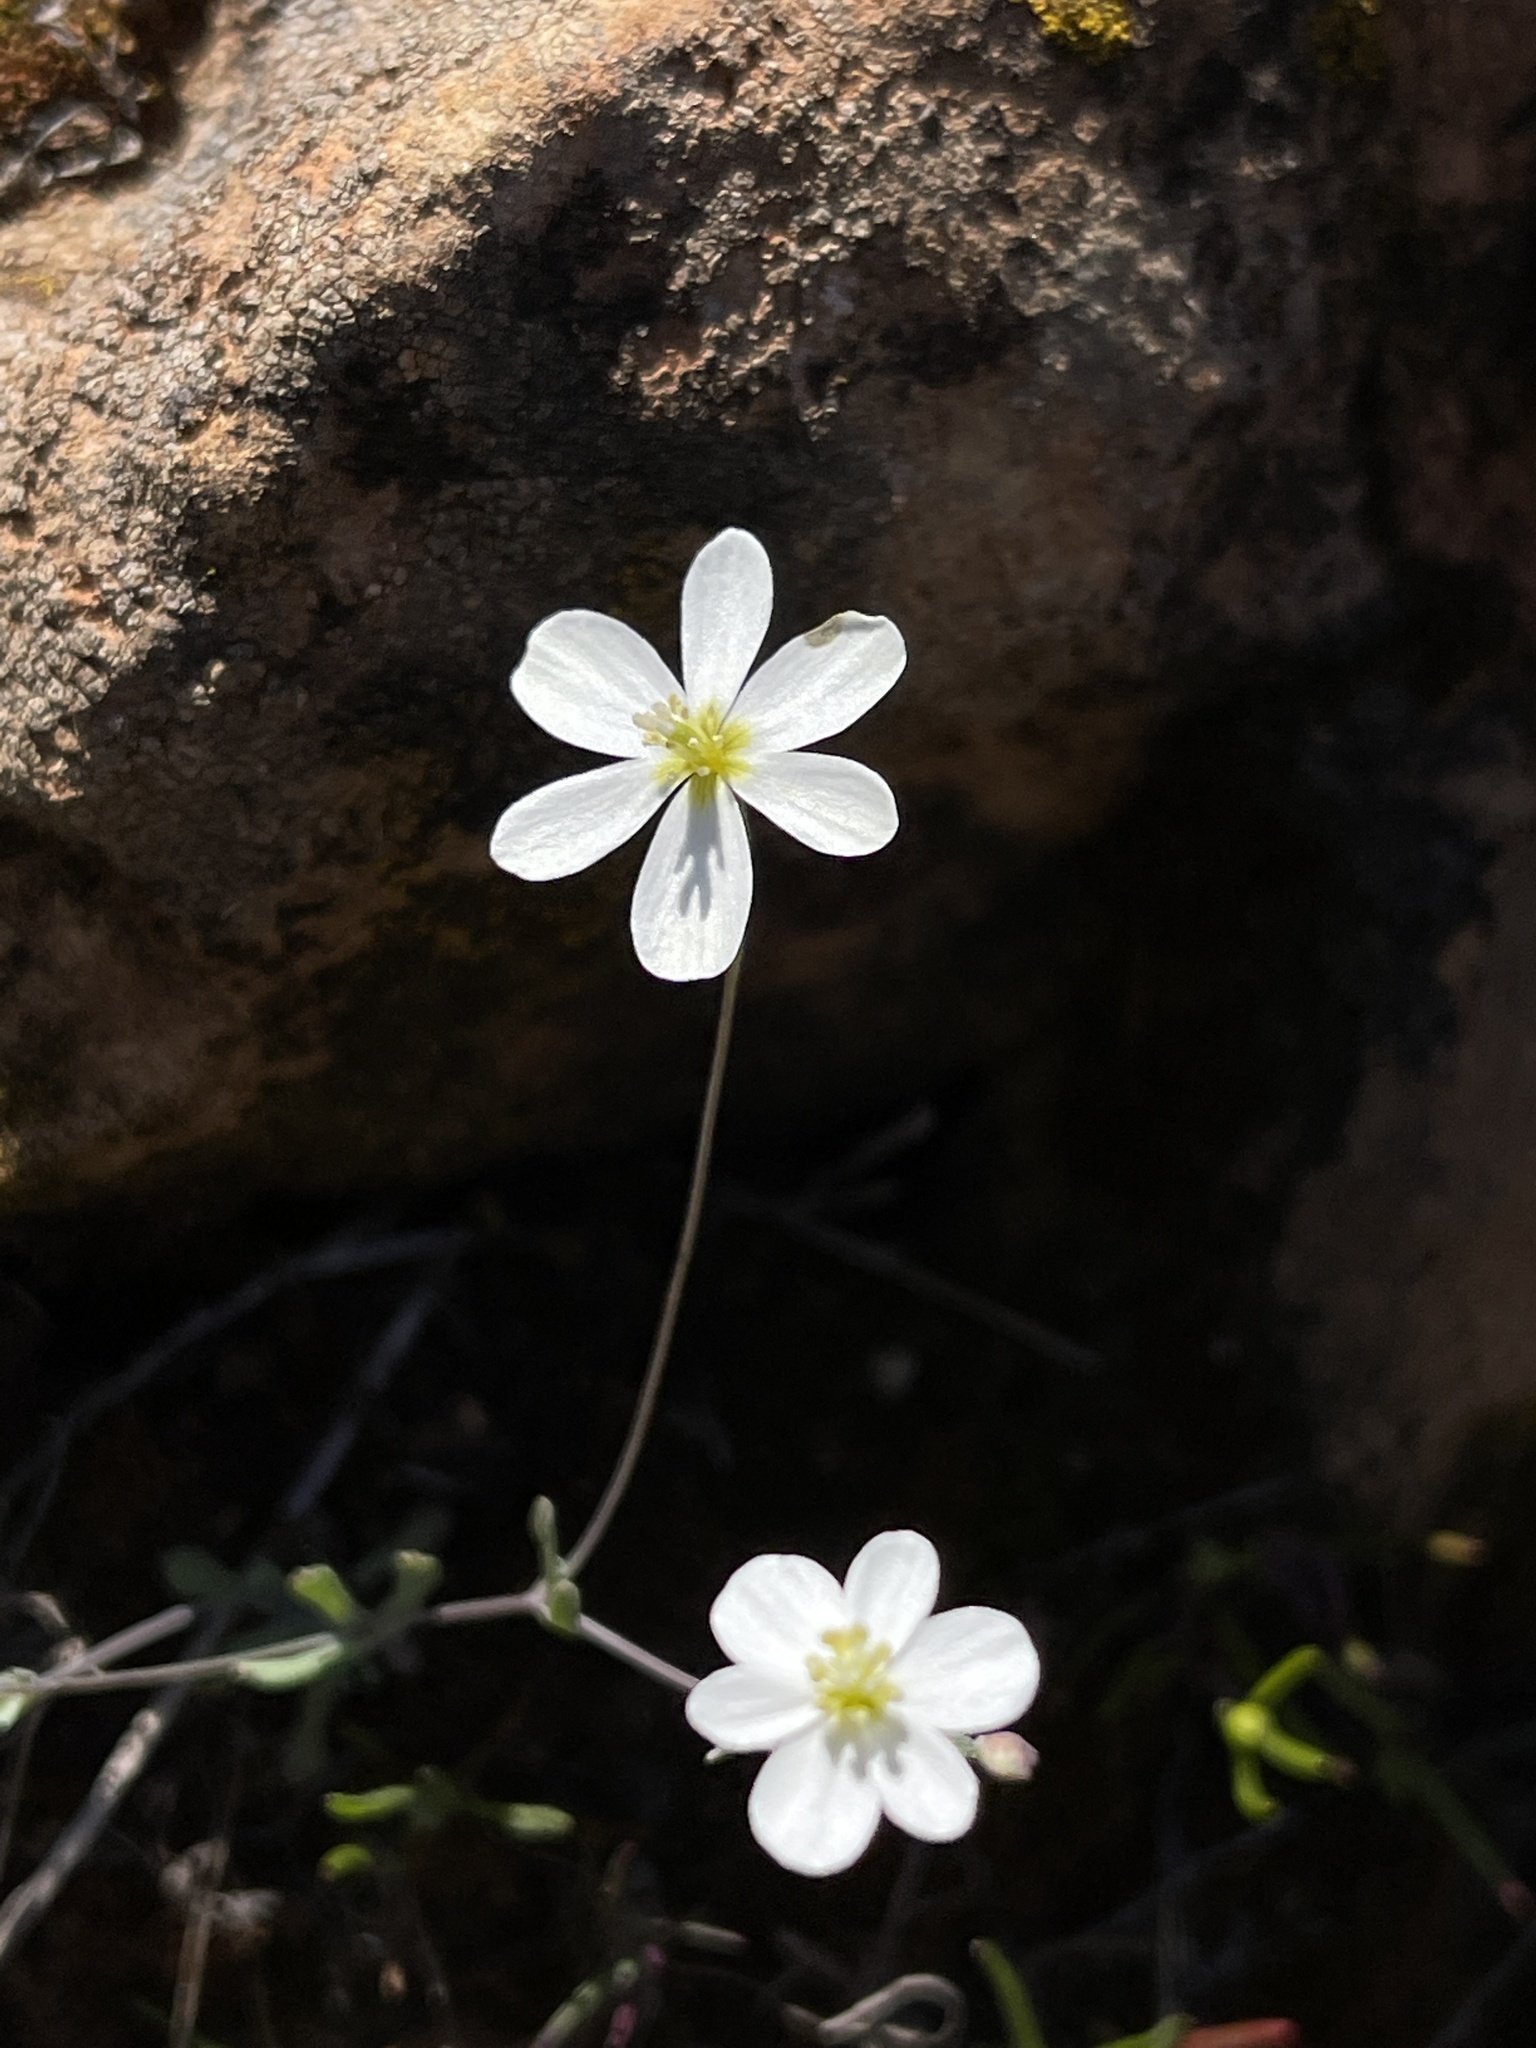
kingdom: Plantae
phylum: Tracheophyta
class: Magnoliopsida
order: Ranunculales
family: Papaveraceae
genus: Meconella
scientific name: Meconella californica
